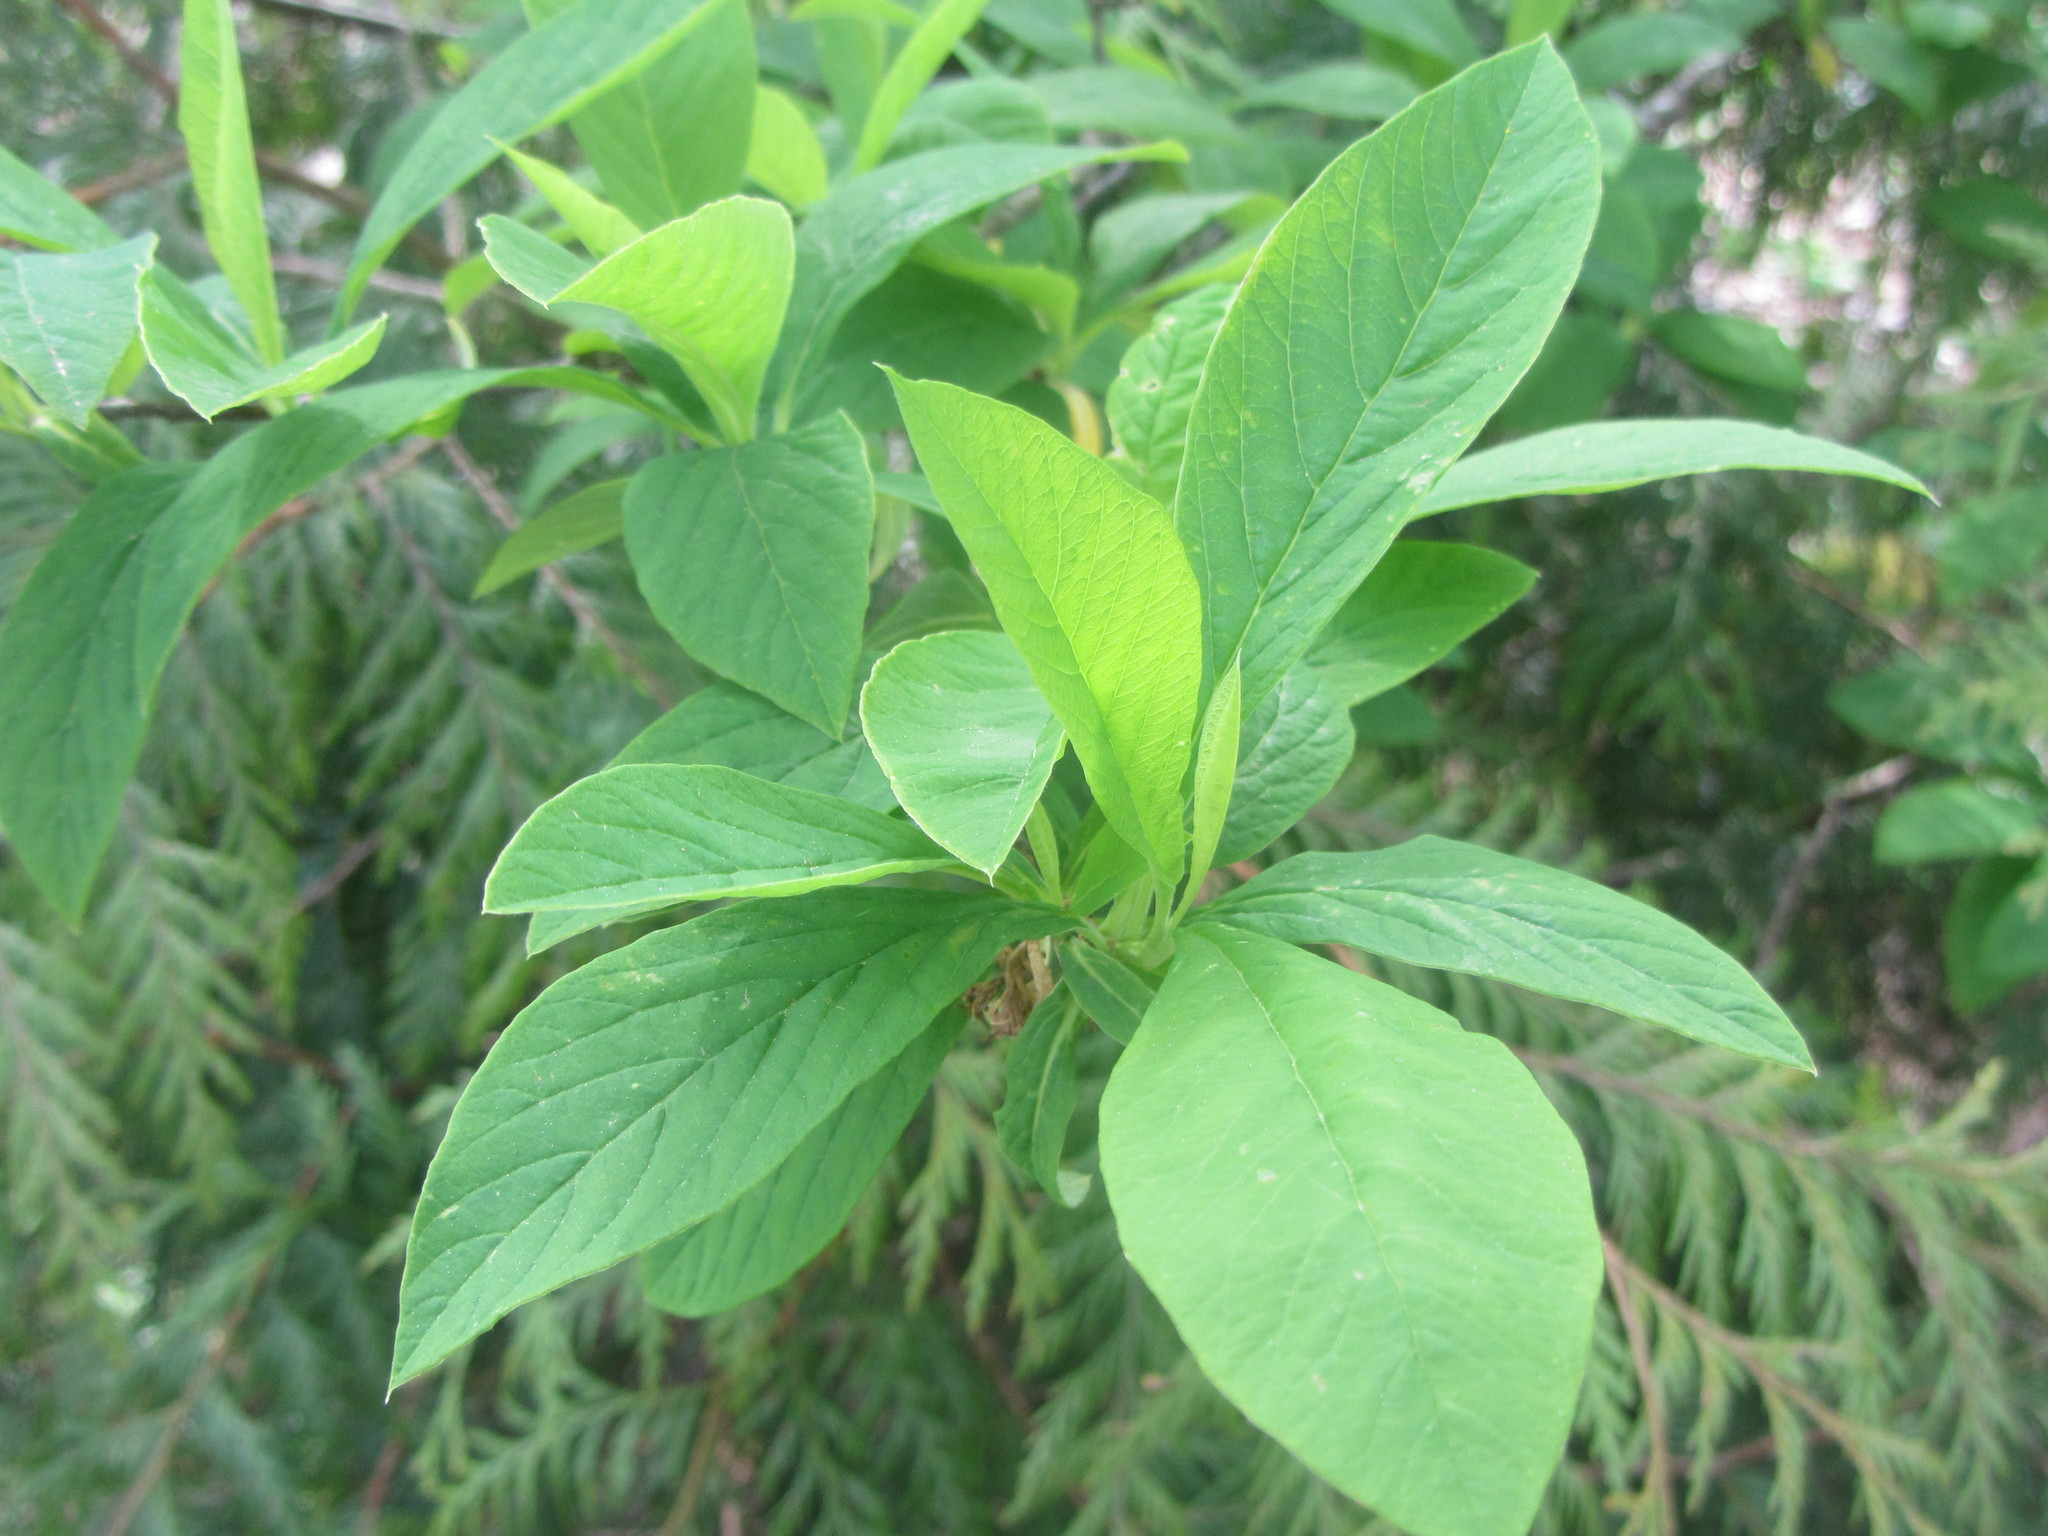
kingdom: Plantae
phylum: Tracheophyta
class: Magnoliopsida
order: Rosales
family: Rosaceae
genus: Oemleria
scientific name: Oemleria cerasiformis
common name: Osoberry
